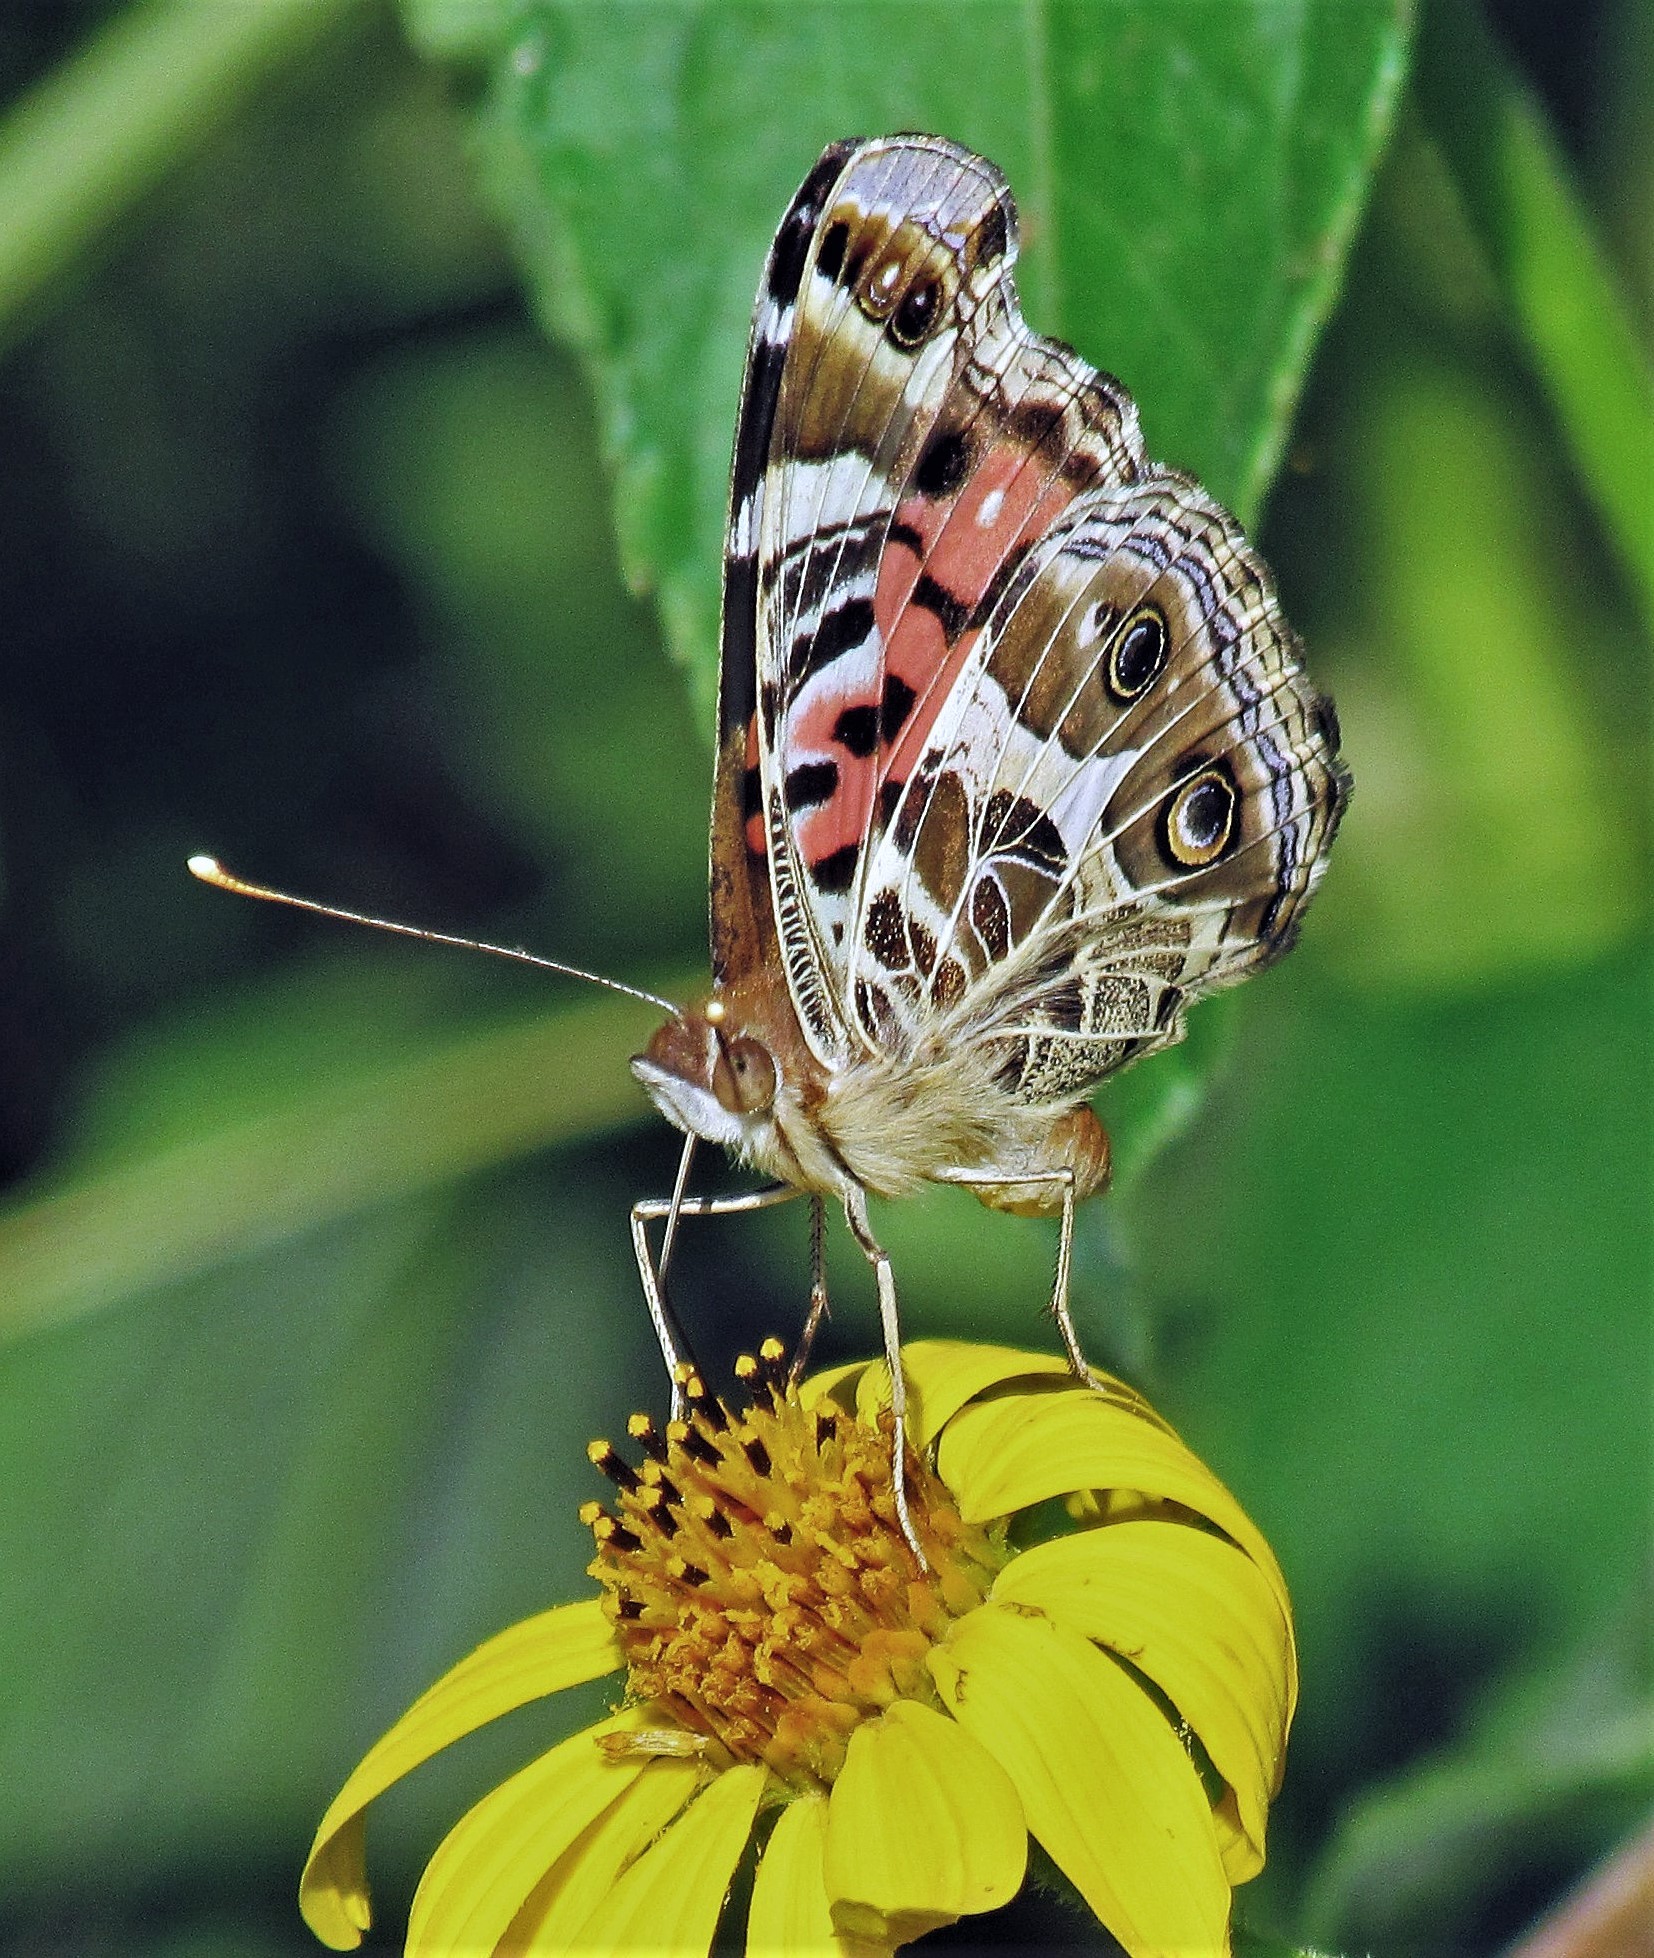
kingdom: Animalia
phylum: Arthropoda
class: Insecta
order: Lepidoptera
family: Nymphalidae
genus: Vanessa
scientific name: Vanessa braziliensis
